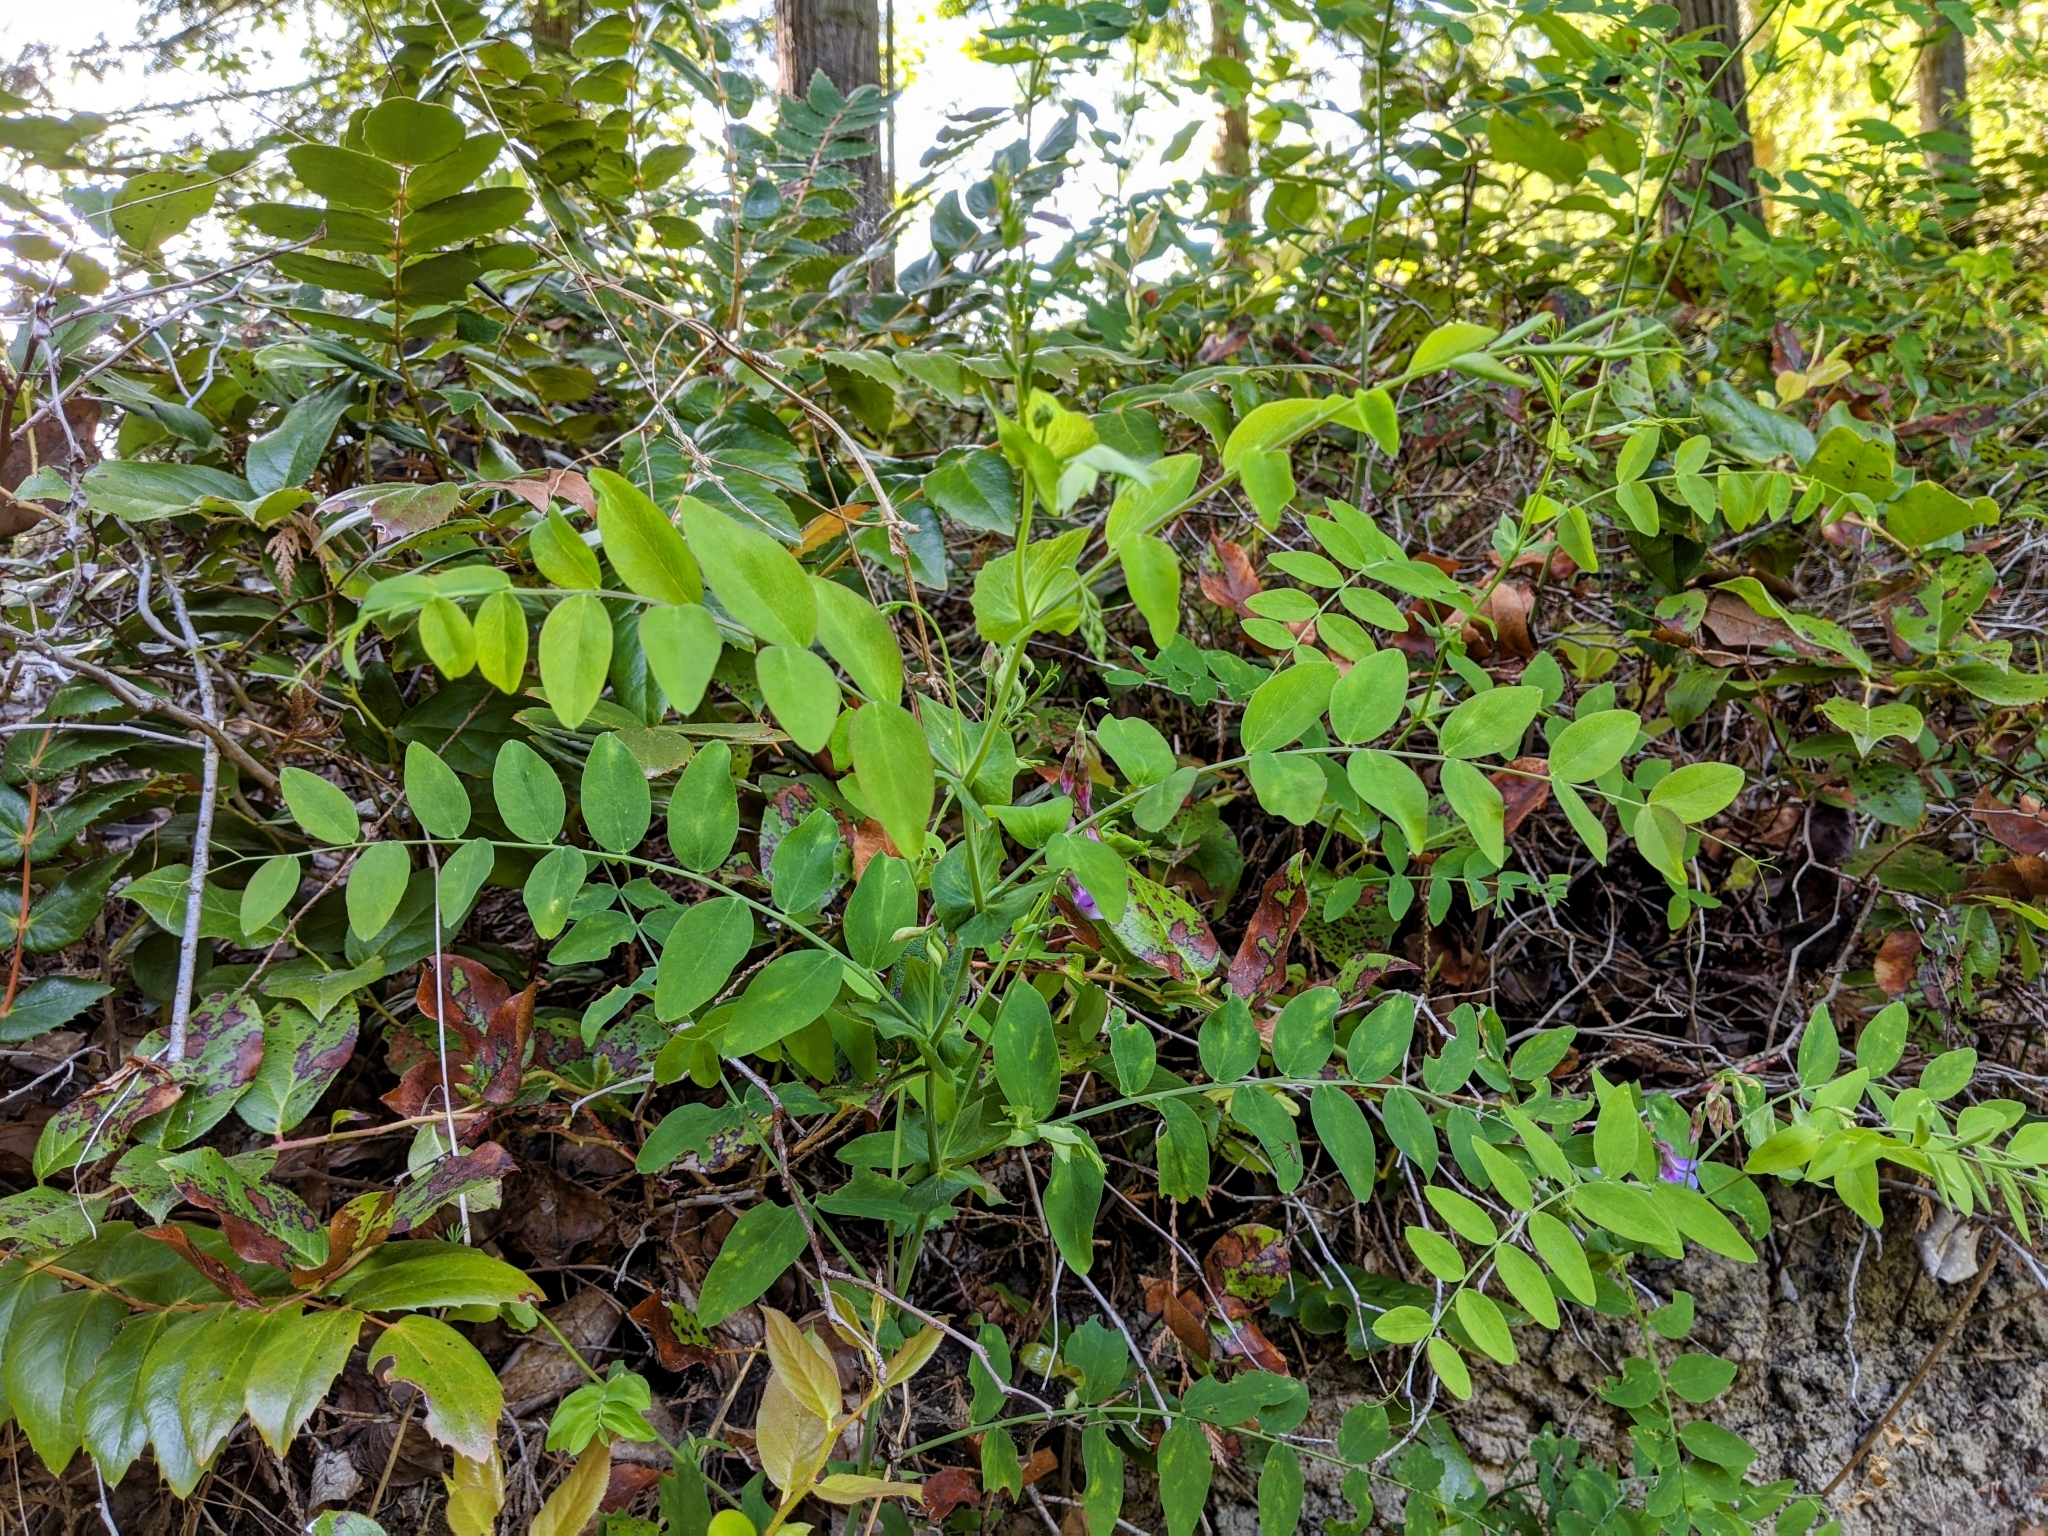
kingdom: Plantae
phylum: Tracheophyta
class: Magnoliopsida
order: Fabales
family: Fabaceae
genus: Lathyrus
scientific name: Lathyrus polyphyllus
